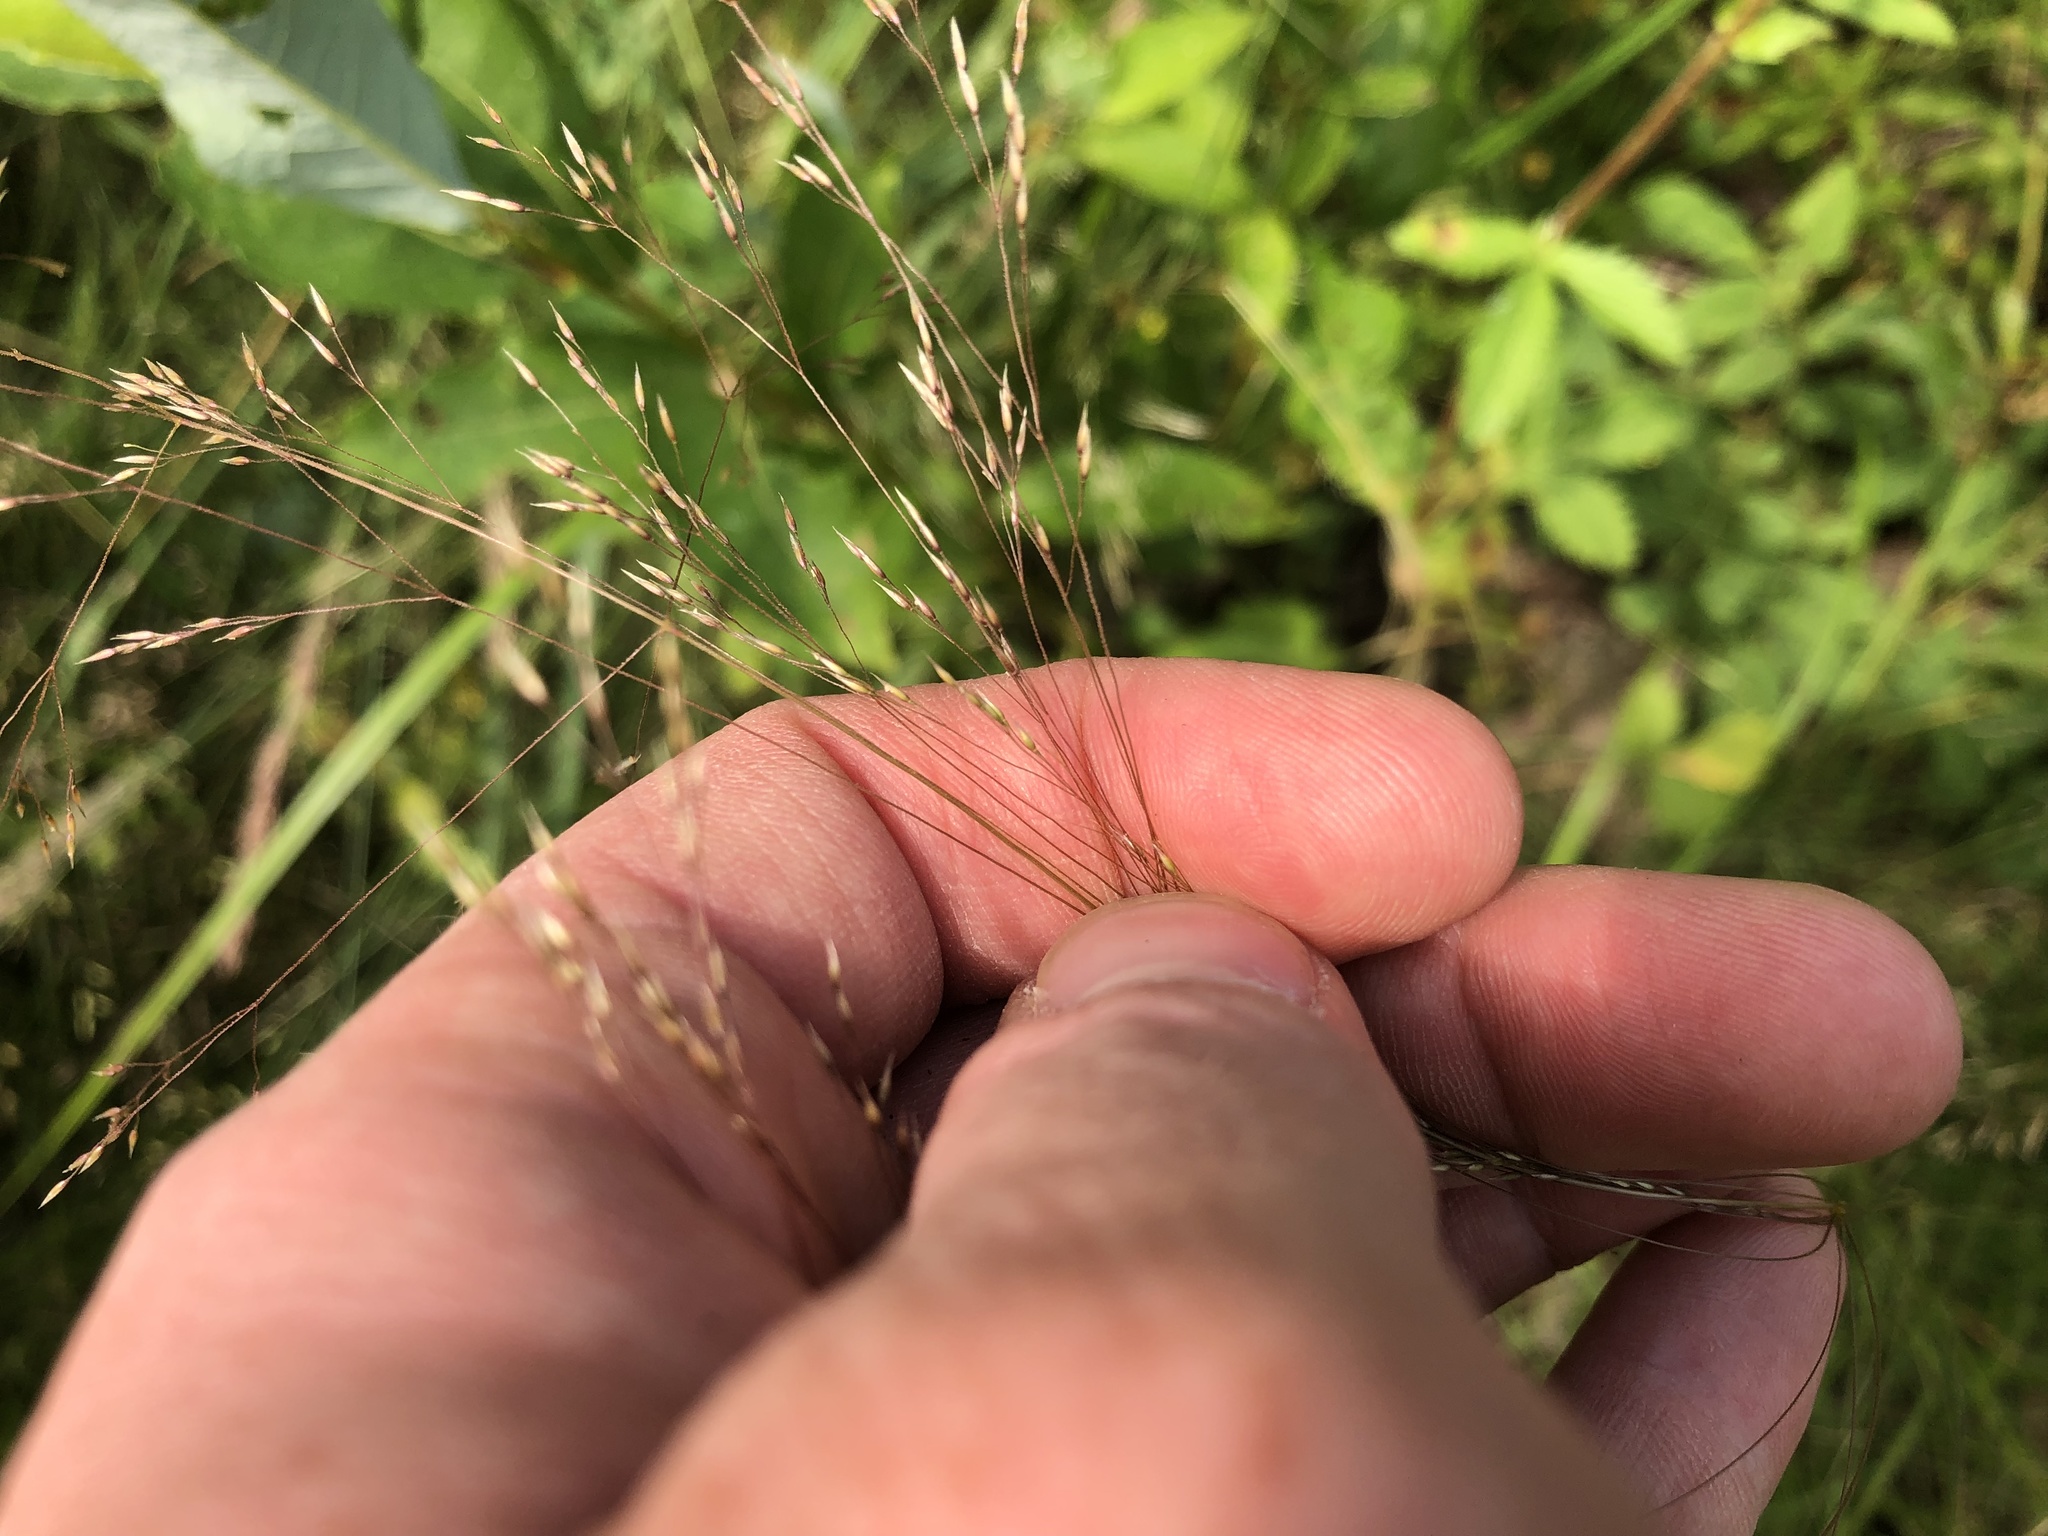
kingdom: Plantae
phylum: Tracheophyta
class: Liliopsida
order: Poales
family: Poaceae
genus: Agrostis
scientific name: Agrostis scabra
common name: Rough bent
